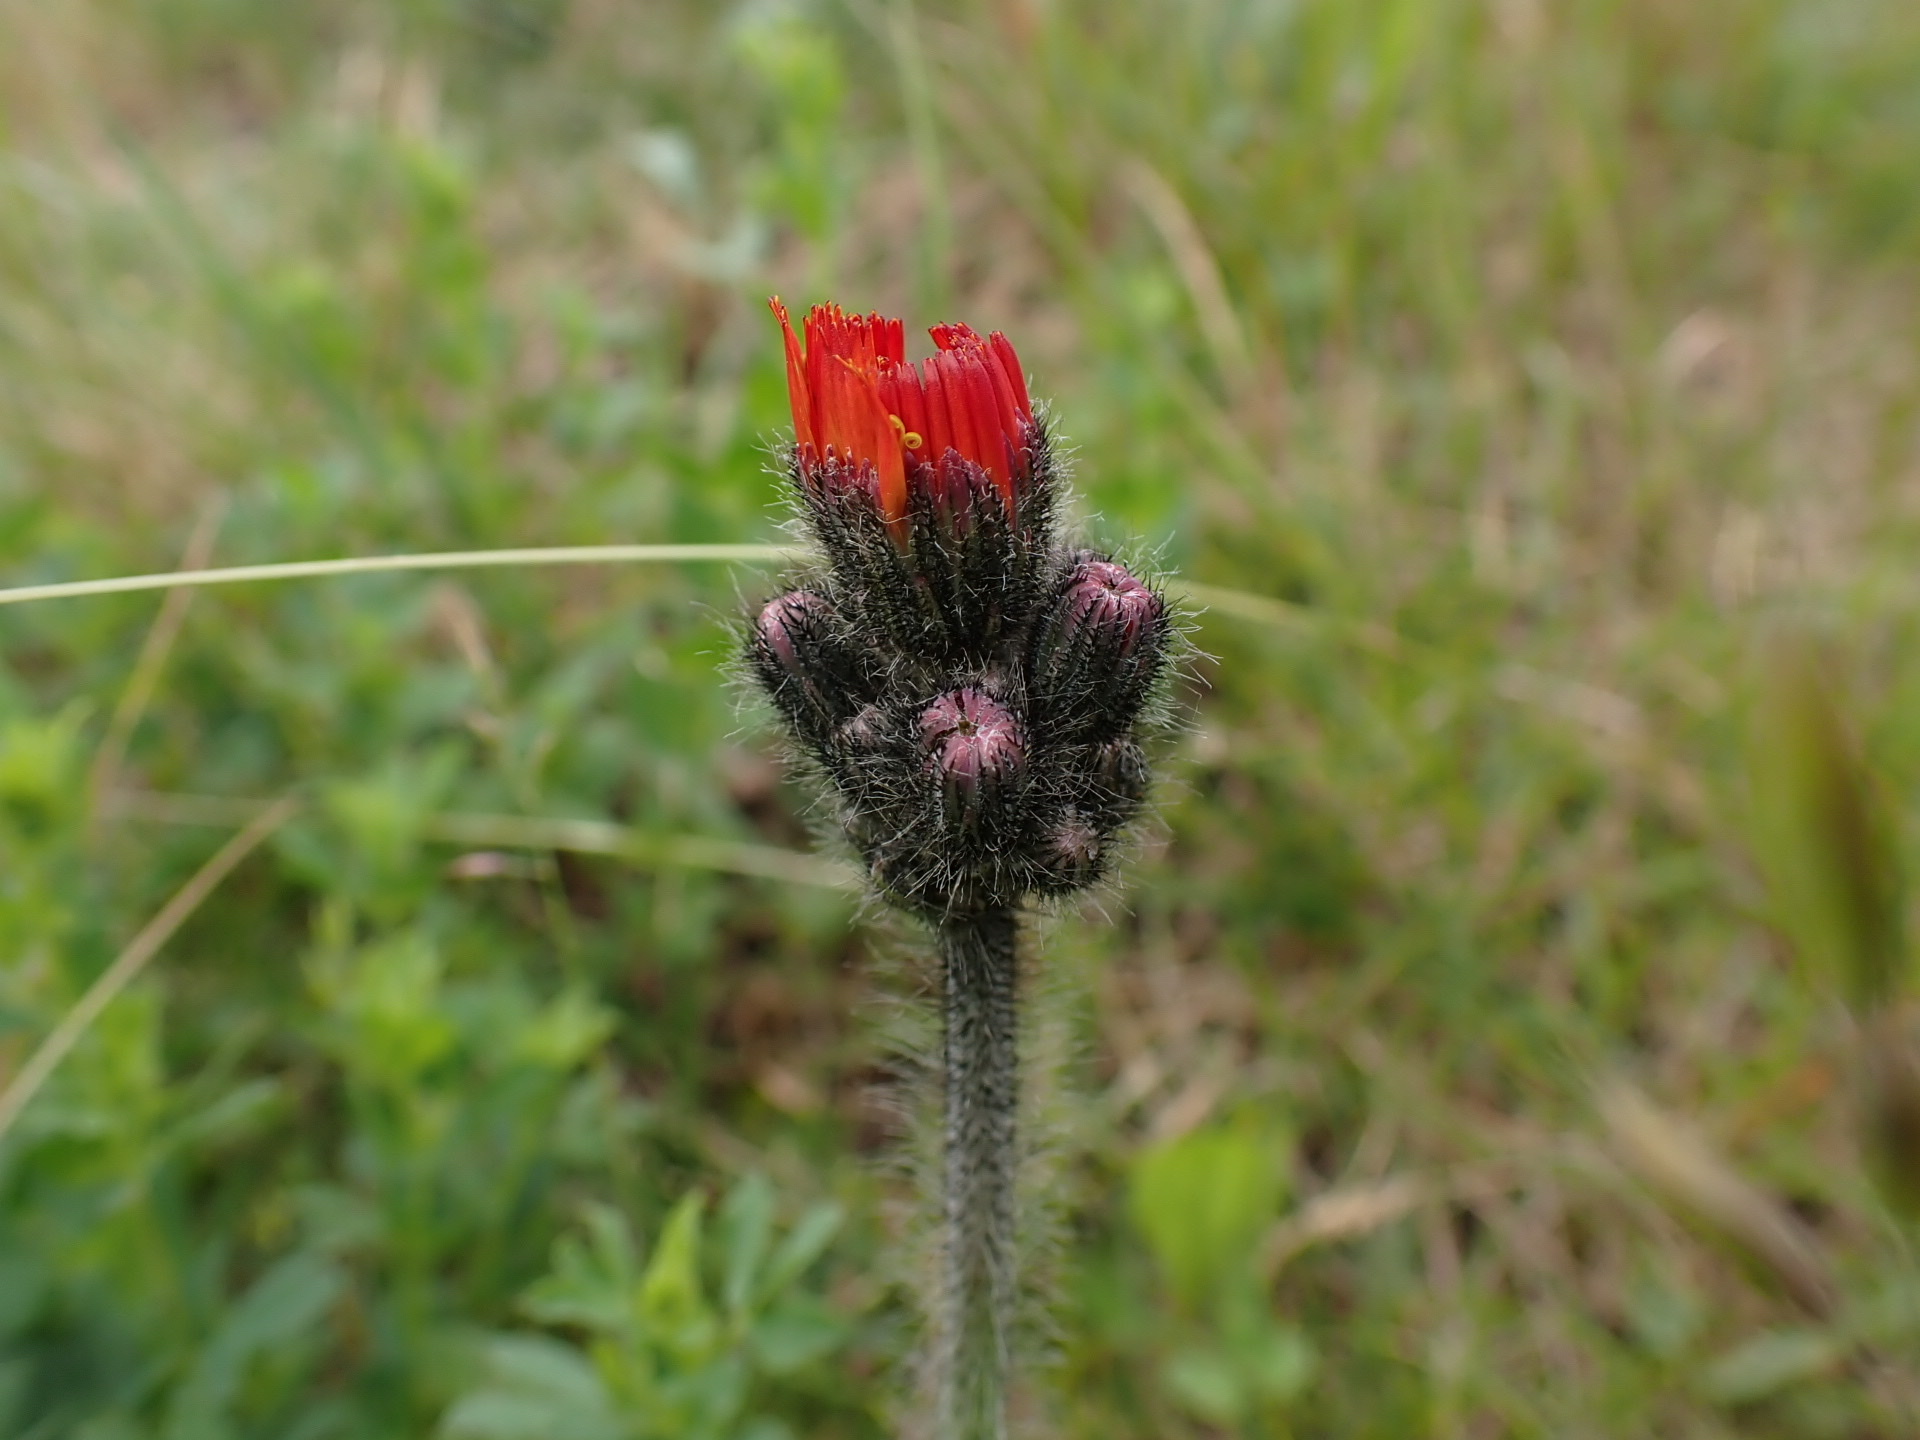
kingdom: Plantae
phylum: Tracheophyta
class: Magnoliopsida
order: Asterales
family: Asteraceae
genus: Pilosella
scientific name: Pilosella aurantiaca
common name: Fox-and-cubs
